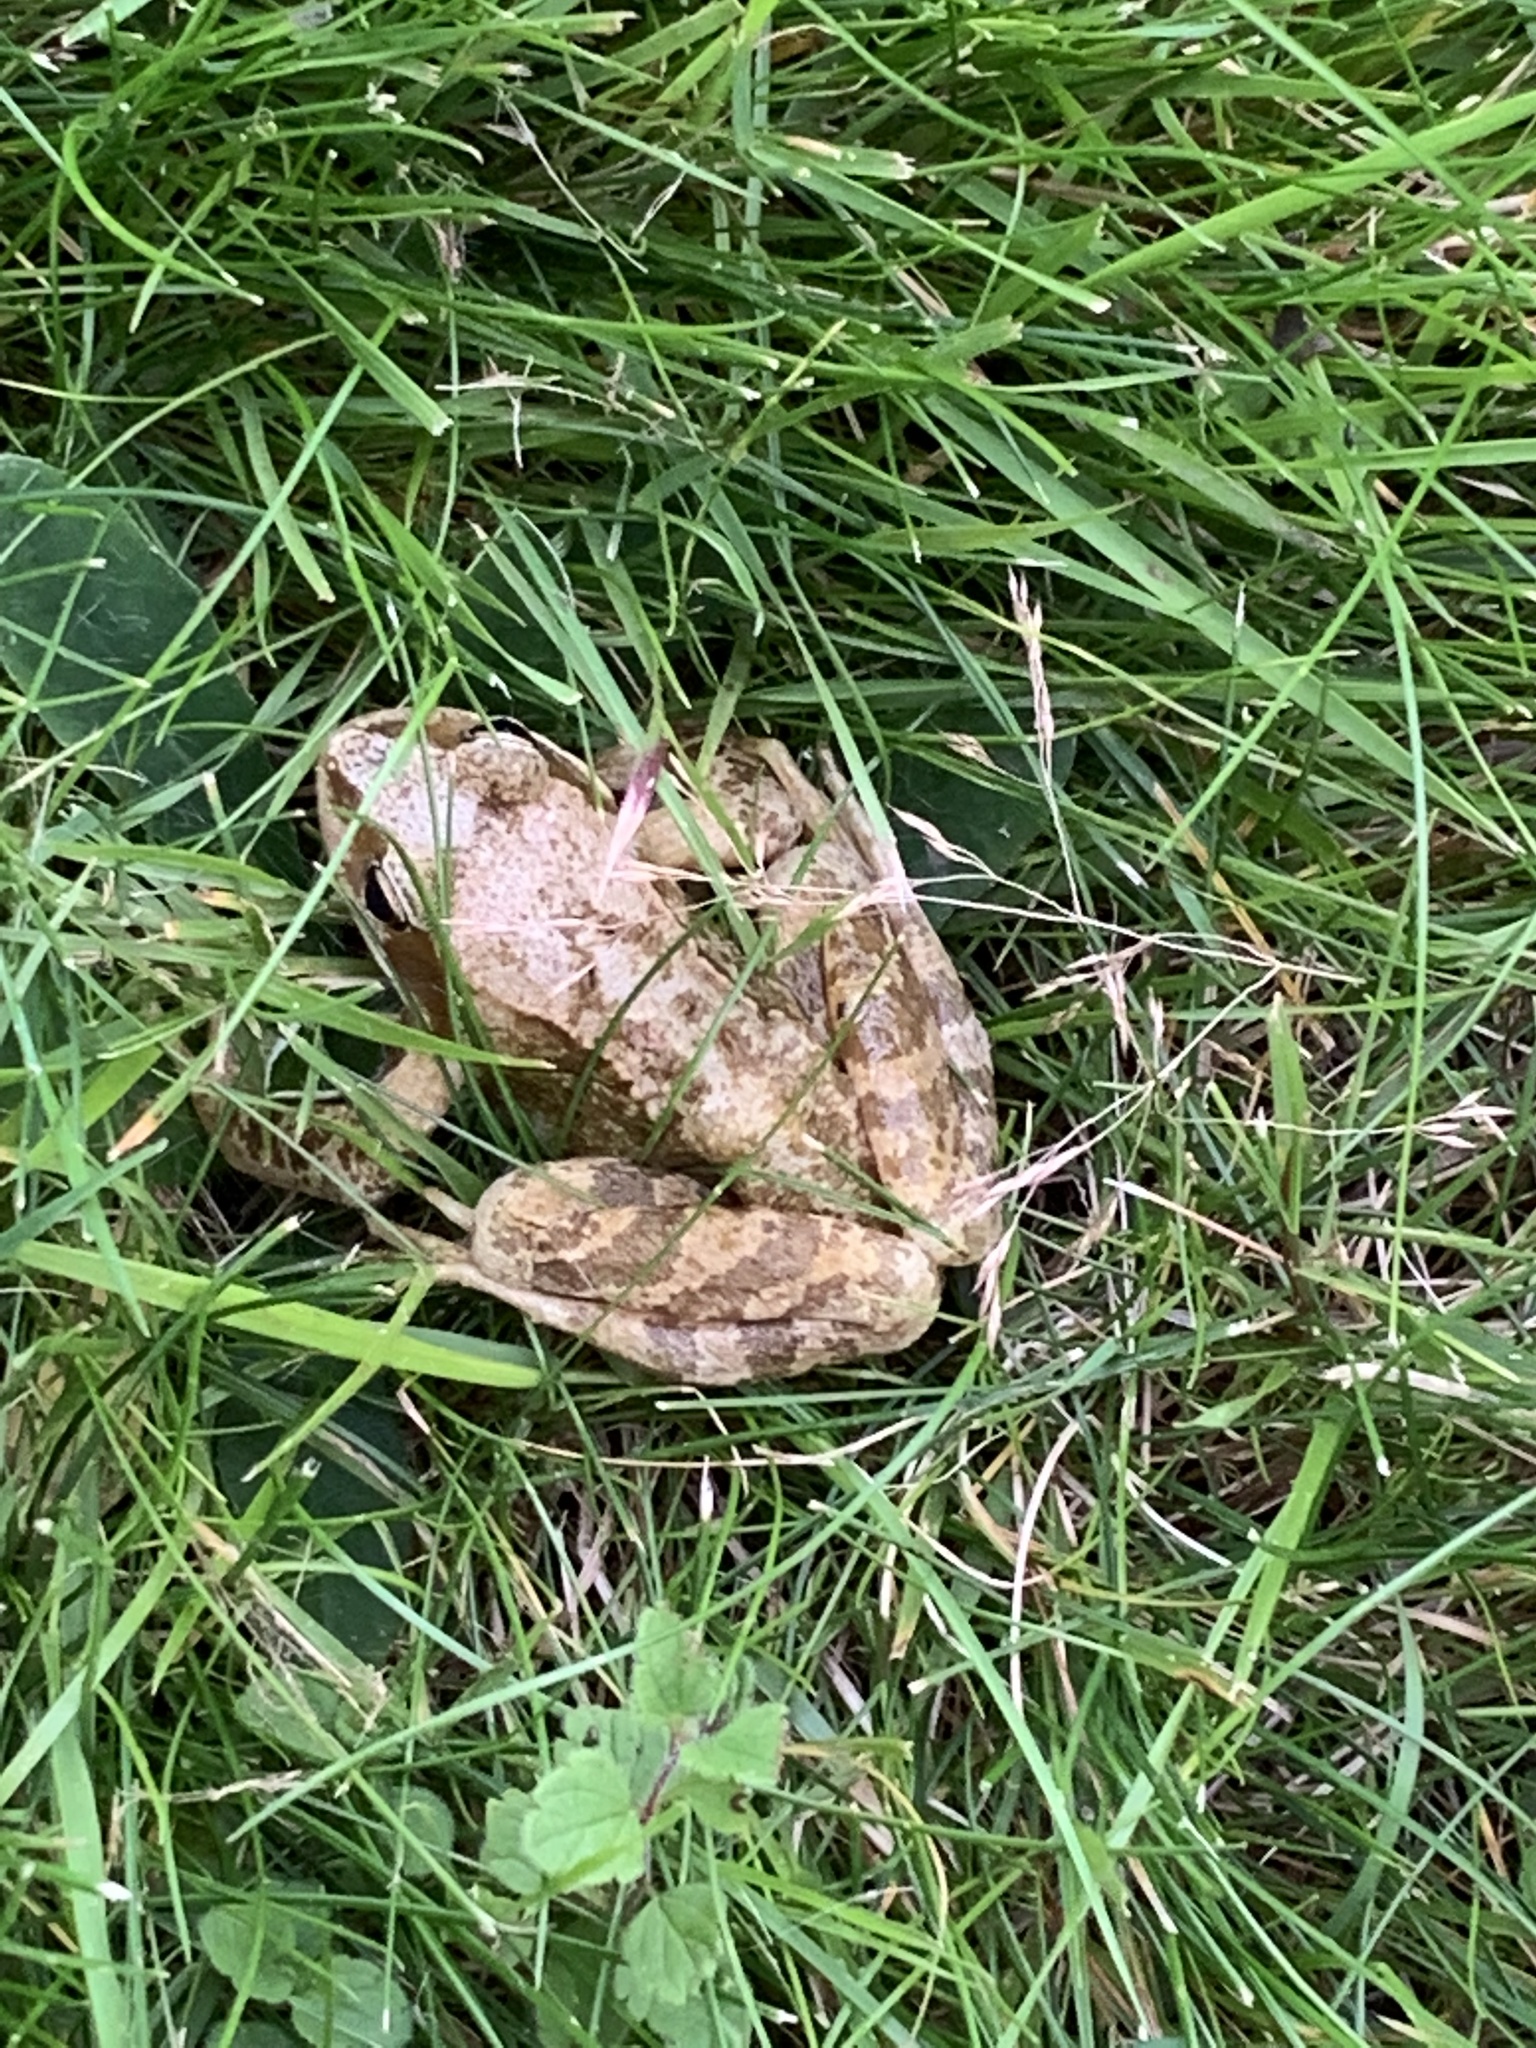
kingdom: Animalia
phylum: Chordata
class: Amphibia
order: Anura
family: Ranidae
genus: Rana
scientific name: Rana temporaria
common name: Common frog
